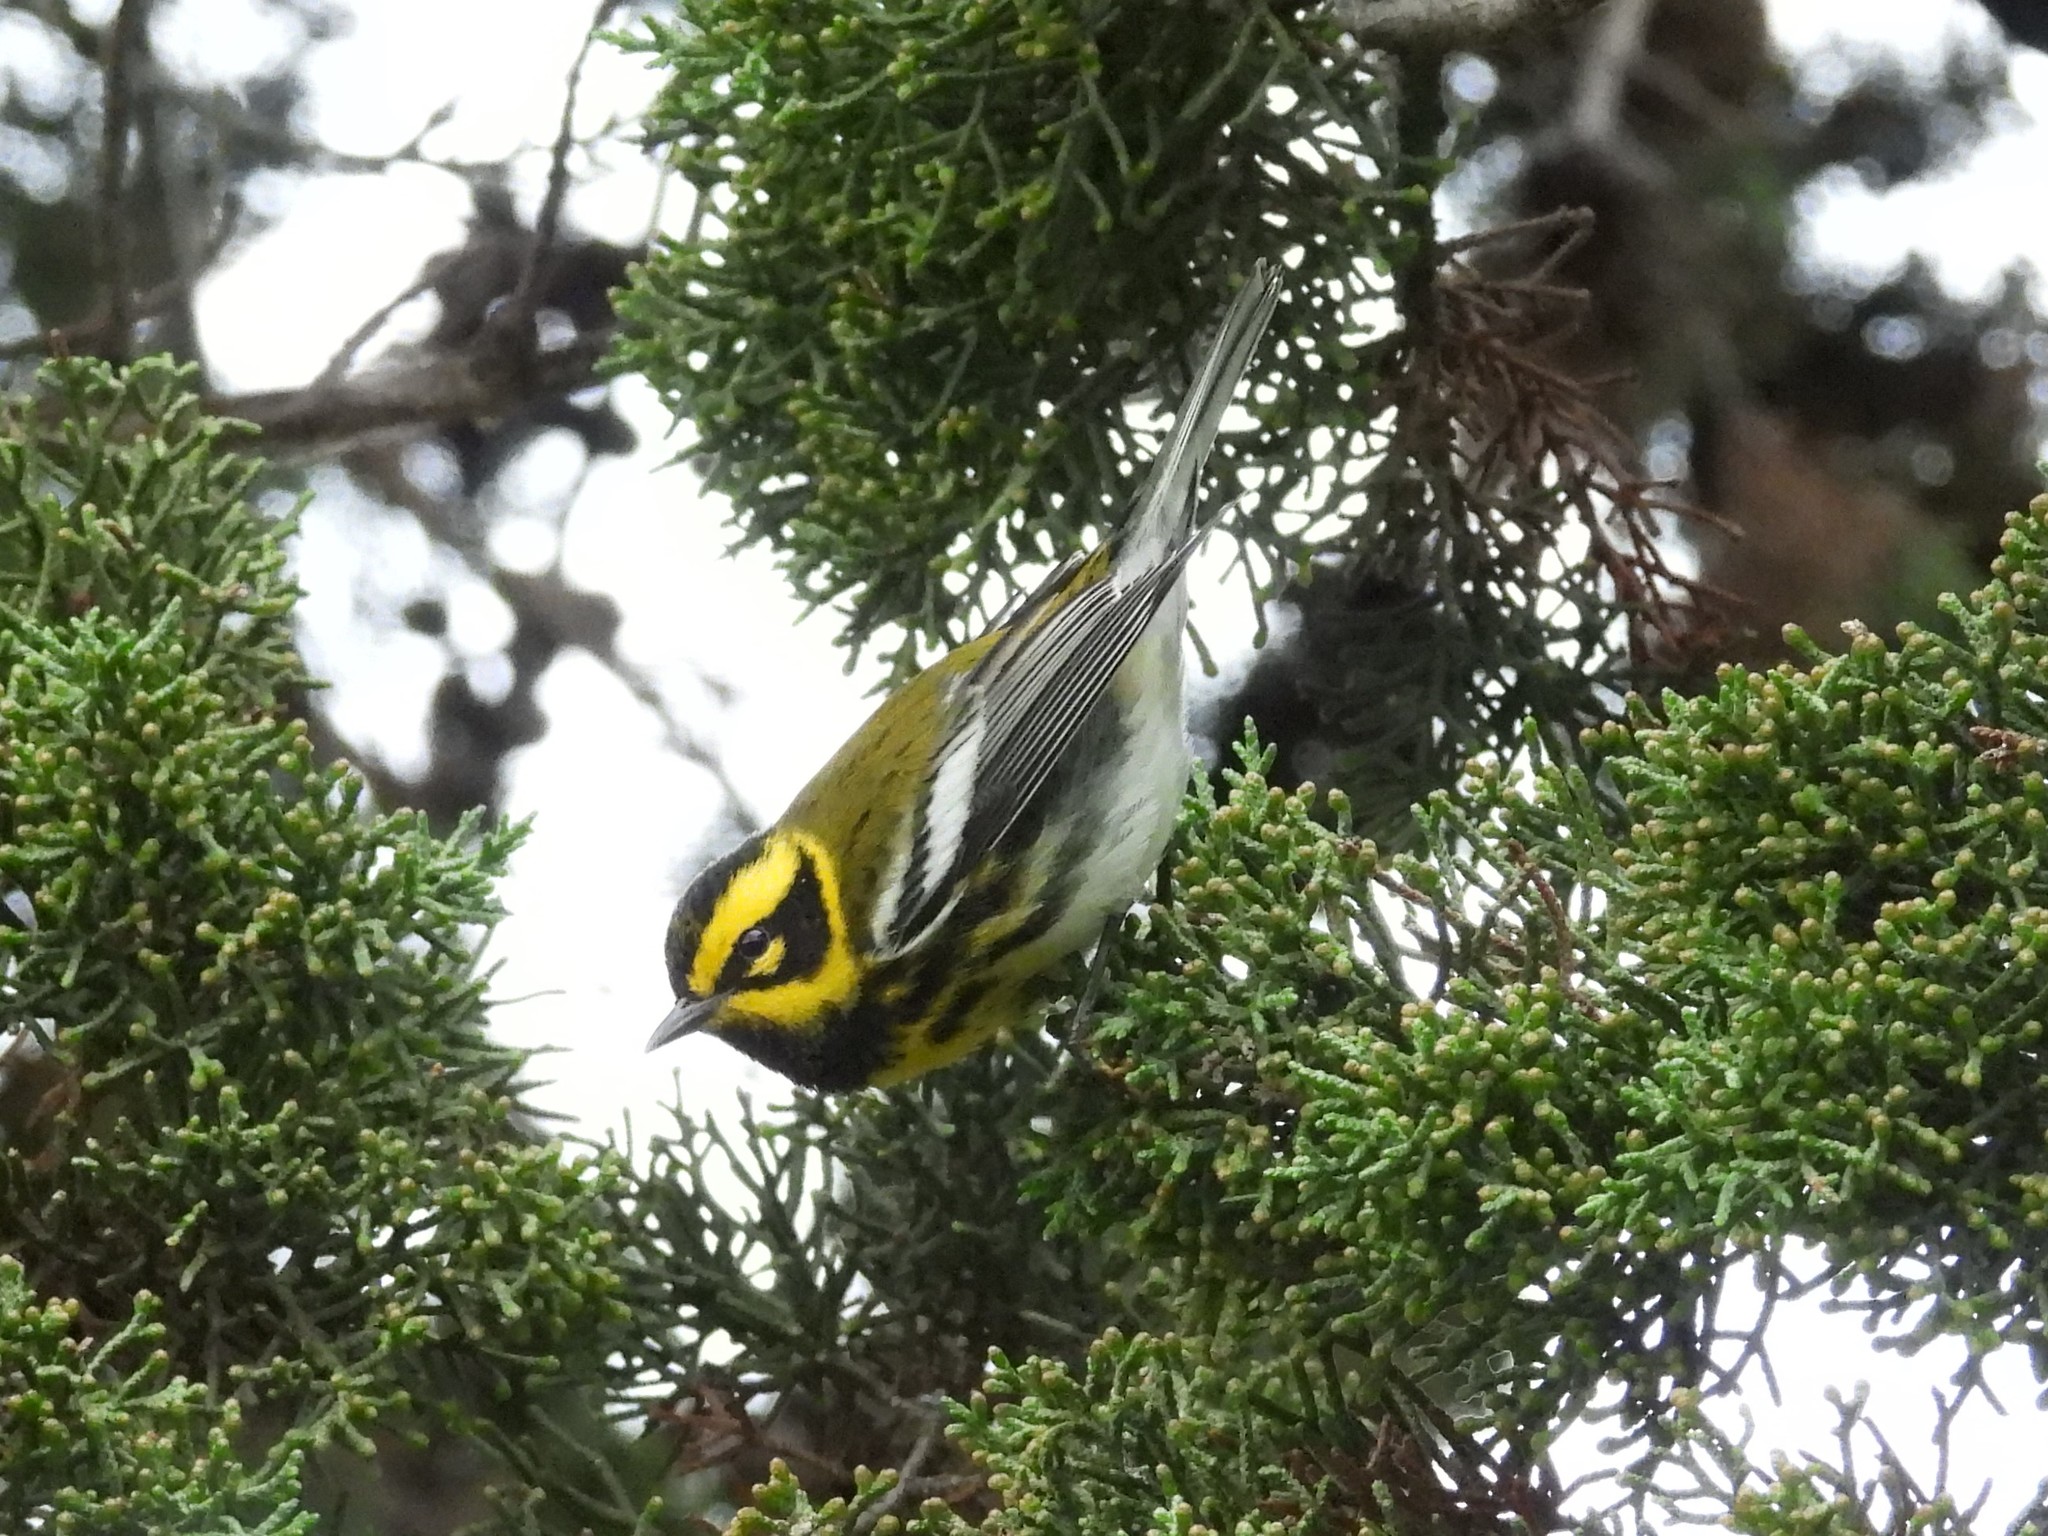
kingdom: Animalia
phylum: Chordata
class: Aves
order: Passeriformes
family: Parulidae
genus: Setophaga
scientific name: Setophaga townsendi
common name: Townsend's warbler
